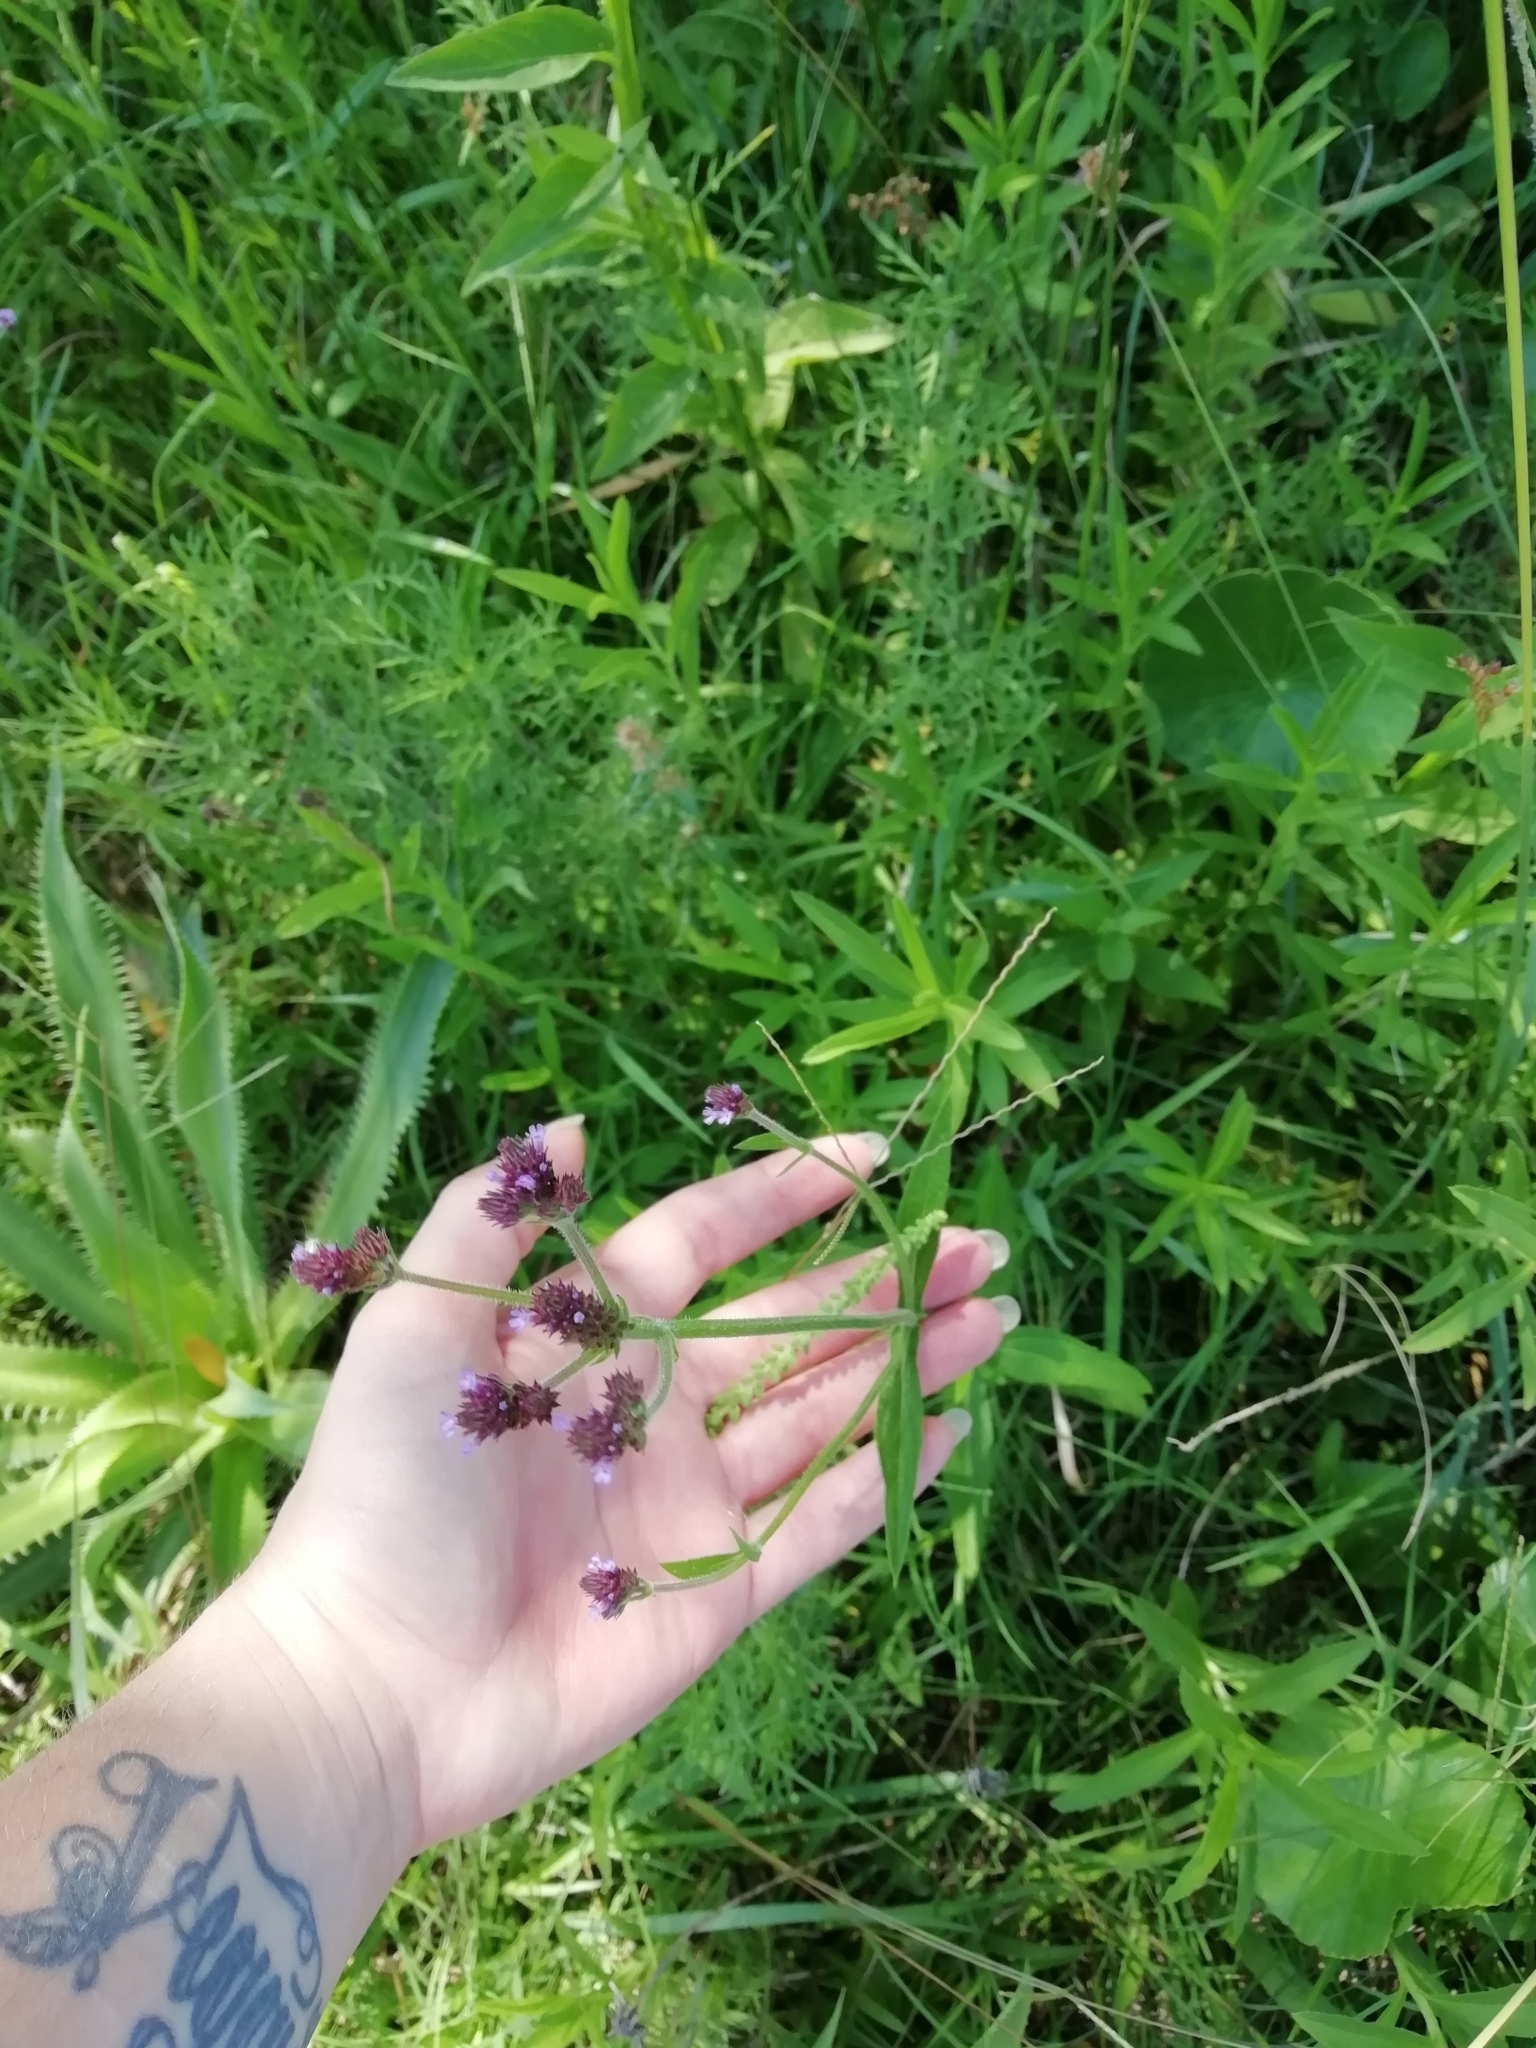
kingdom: Plantae
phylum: Tracheophyta
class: Magnoliopsida
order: Lamiales
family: Verbenaceae
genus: Verbena
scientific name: Verbena bonariensis
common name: Purpletop vervain
